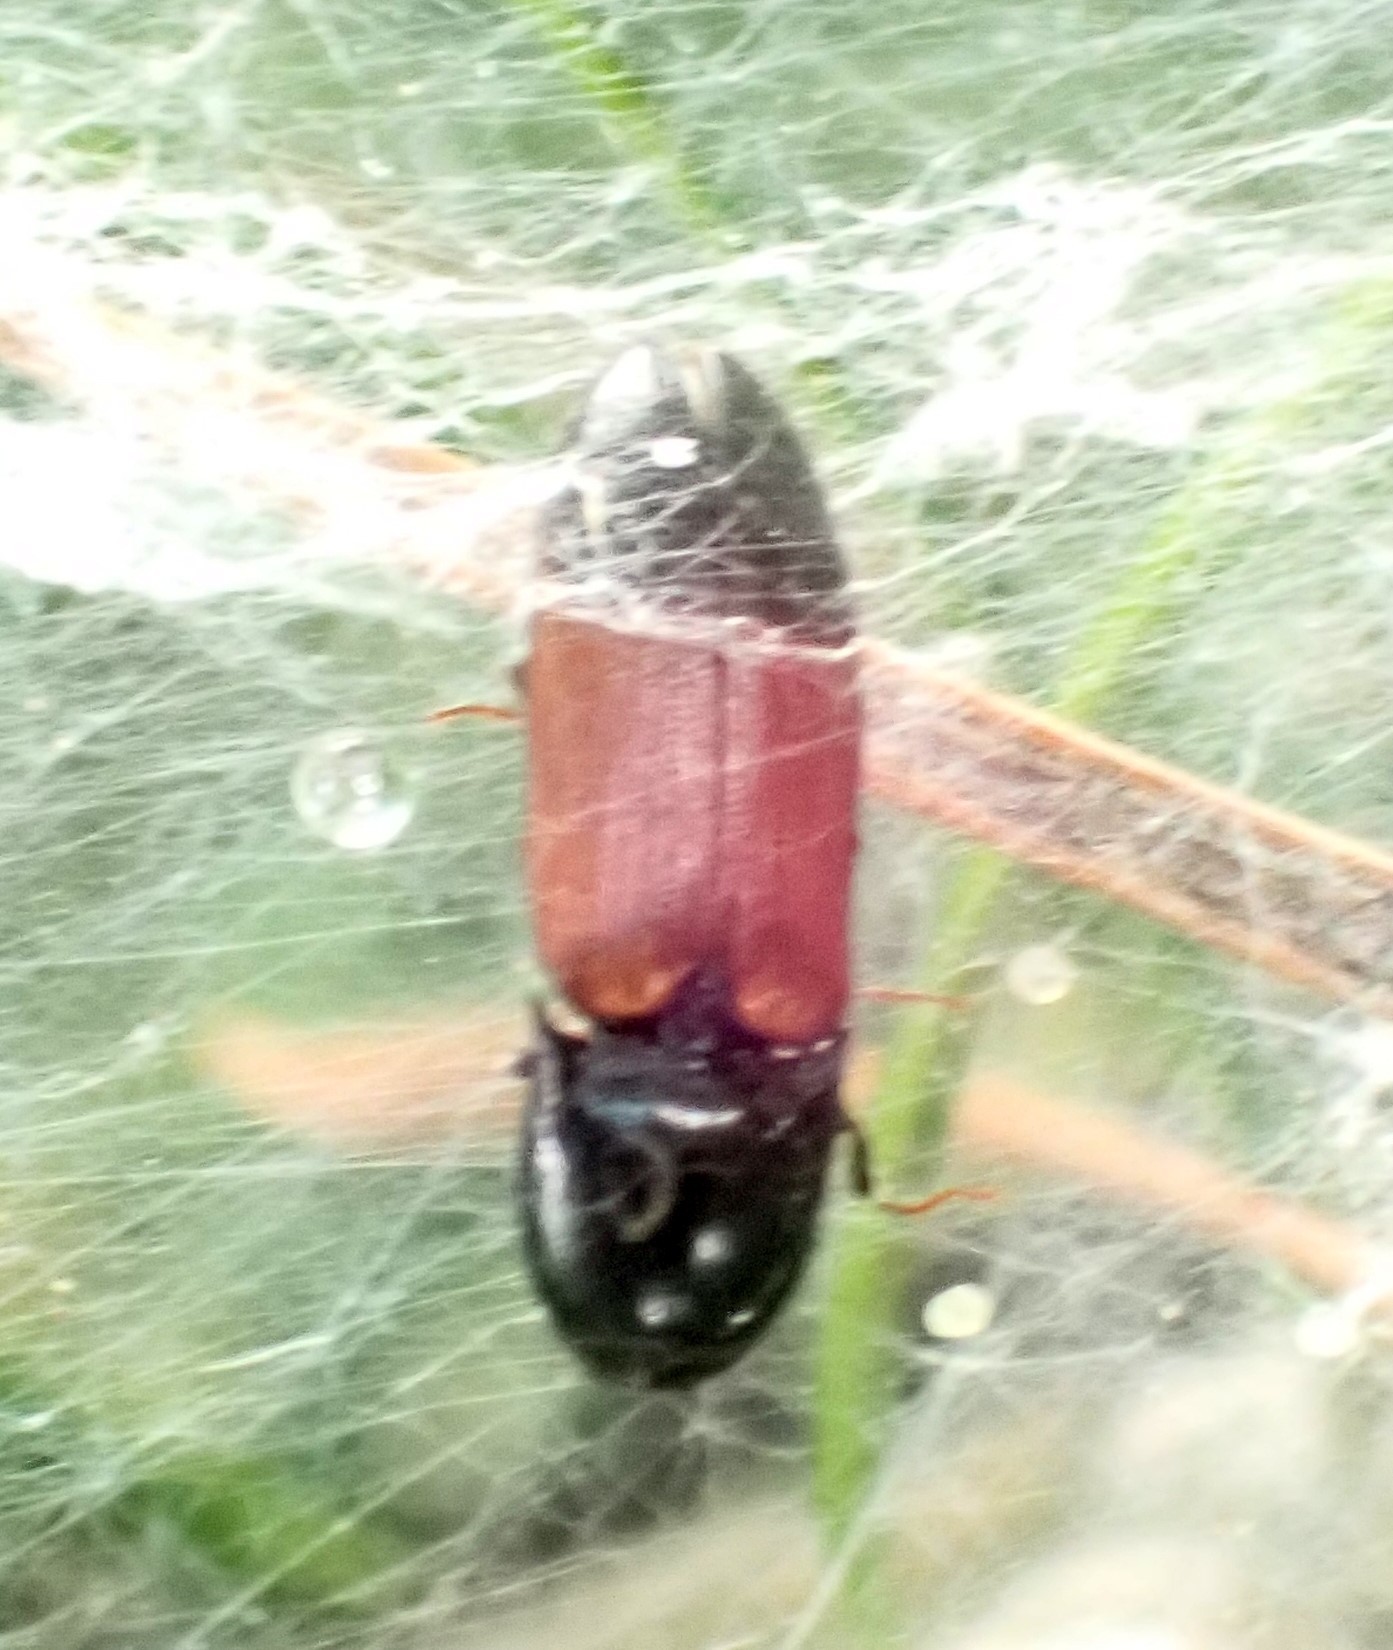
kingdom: Animalia
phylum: Arthropoda
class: Insecta
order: Coleoptera
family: Elateridae
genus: Ampedus
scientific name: Ampedus balteatus
